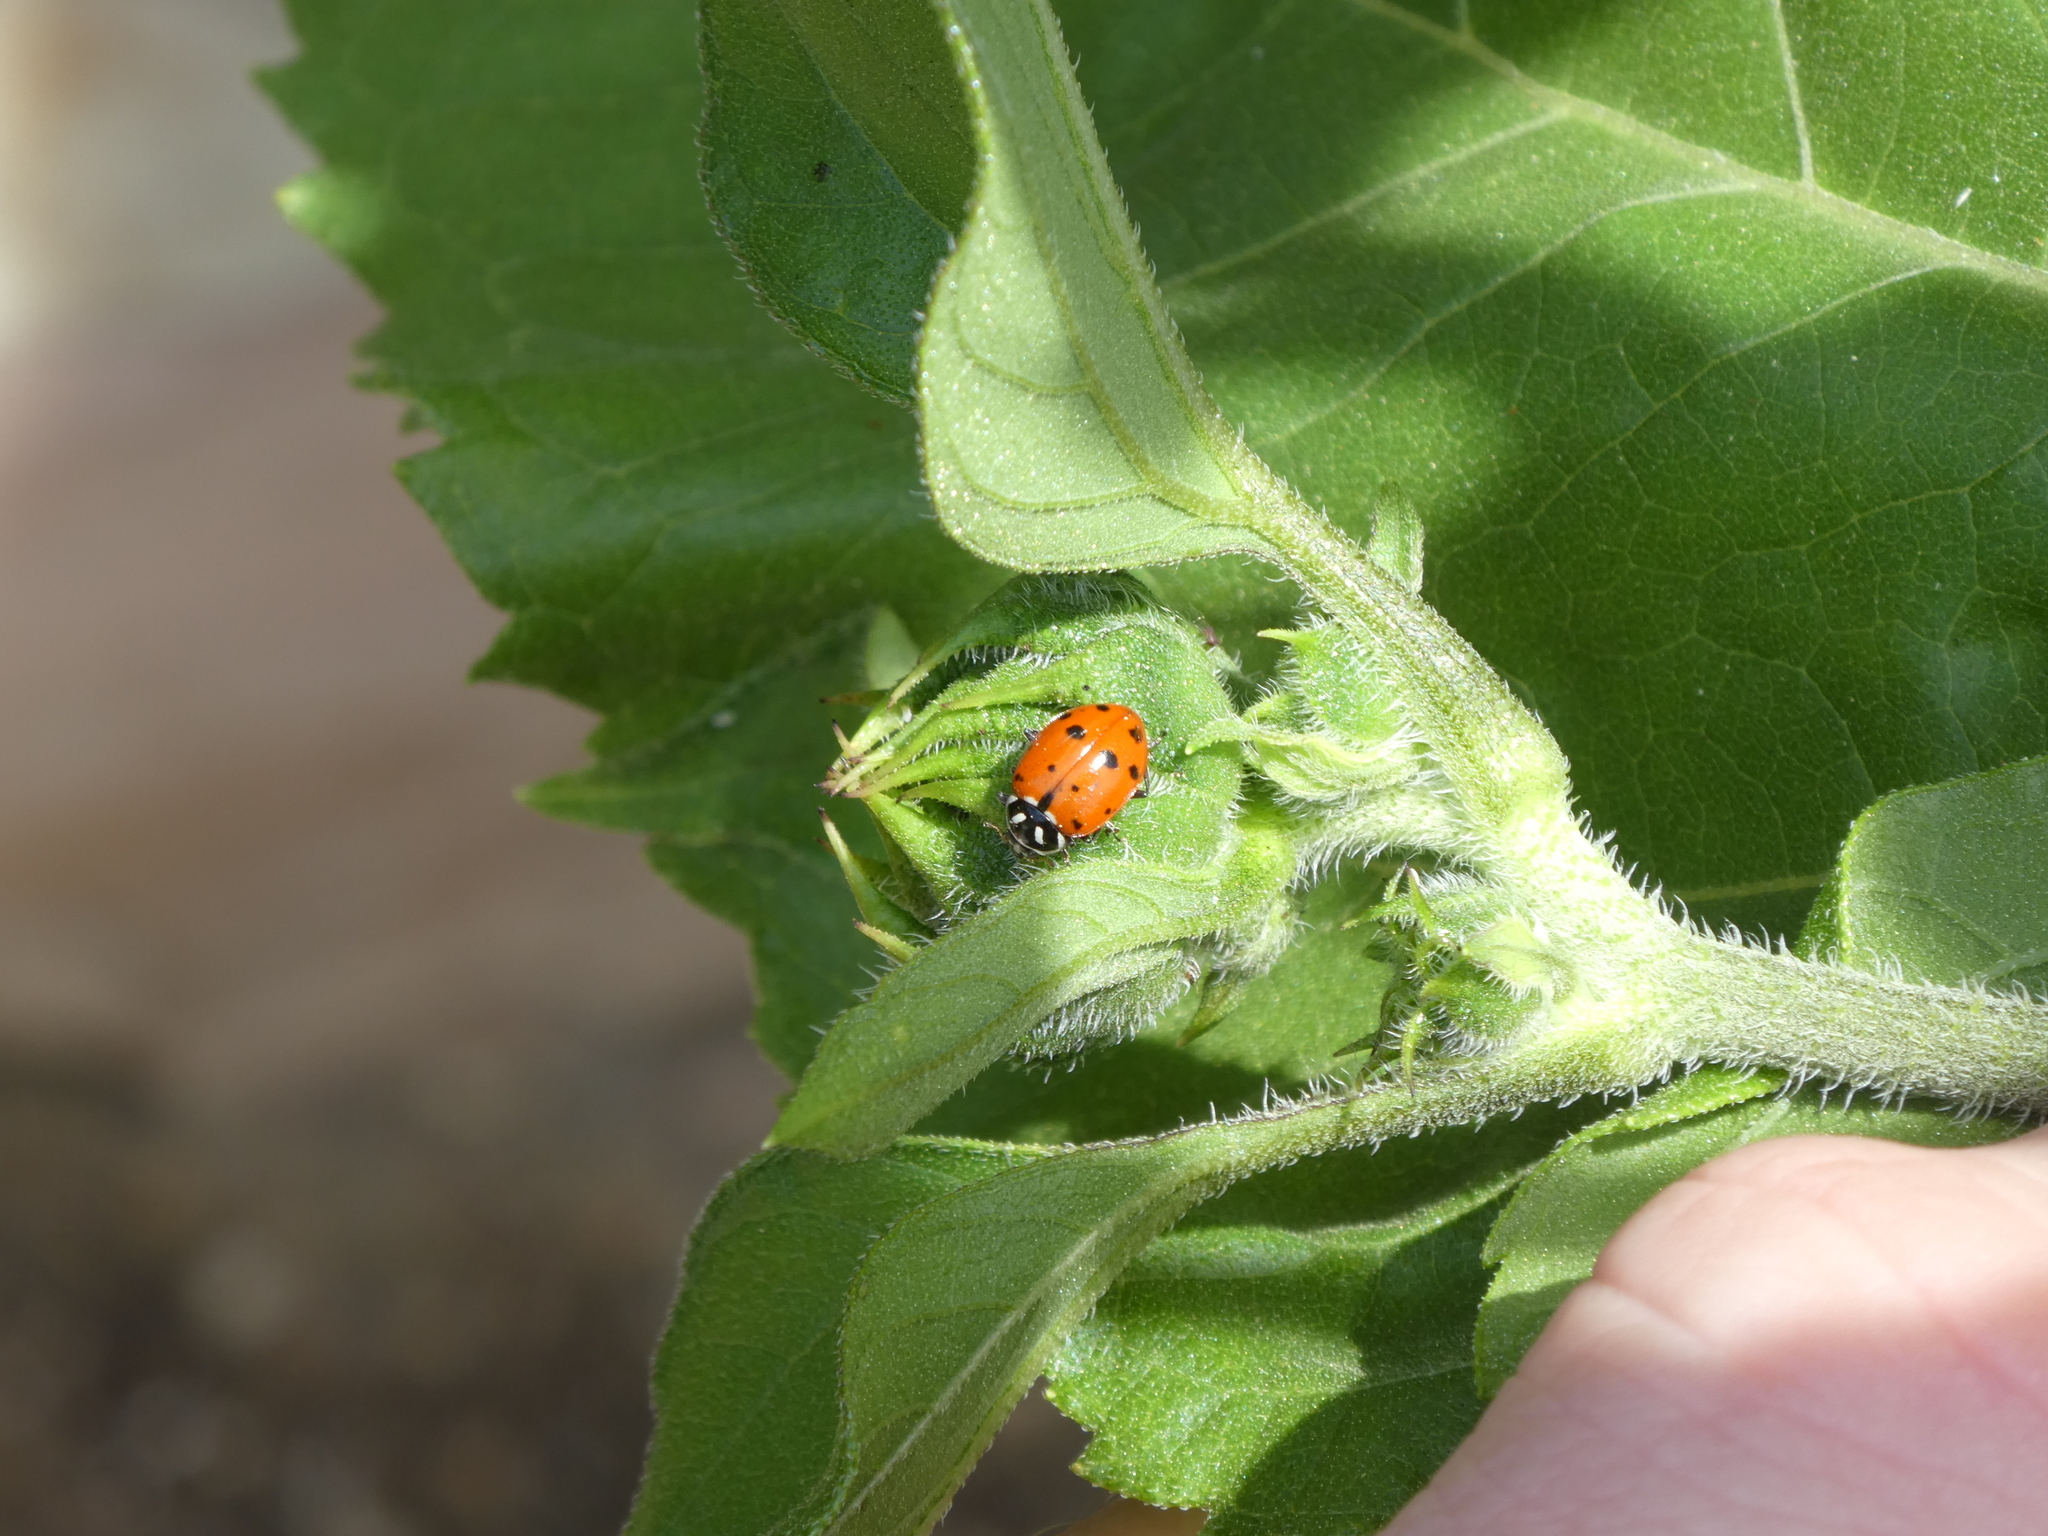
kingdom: Animalia
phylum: Arthropoda
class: Insecta
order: Coleoptera
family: Coccinellidae
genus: Hippodamia
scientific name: Hippodamia convergens
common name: Convergent lady beetle
